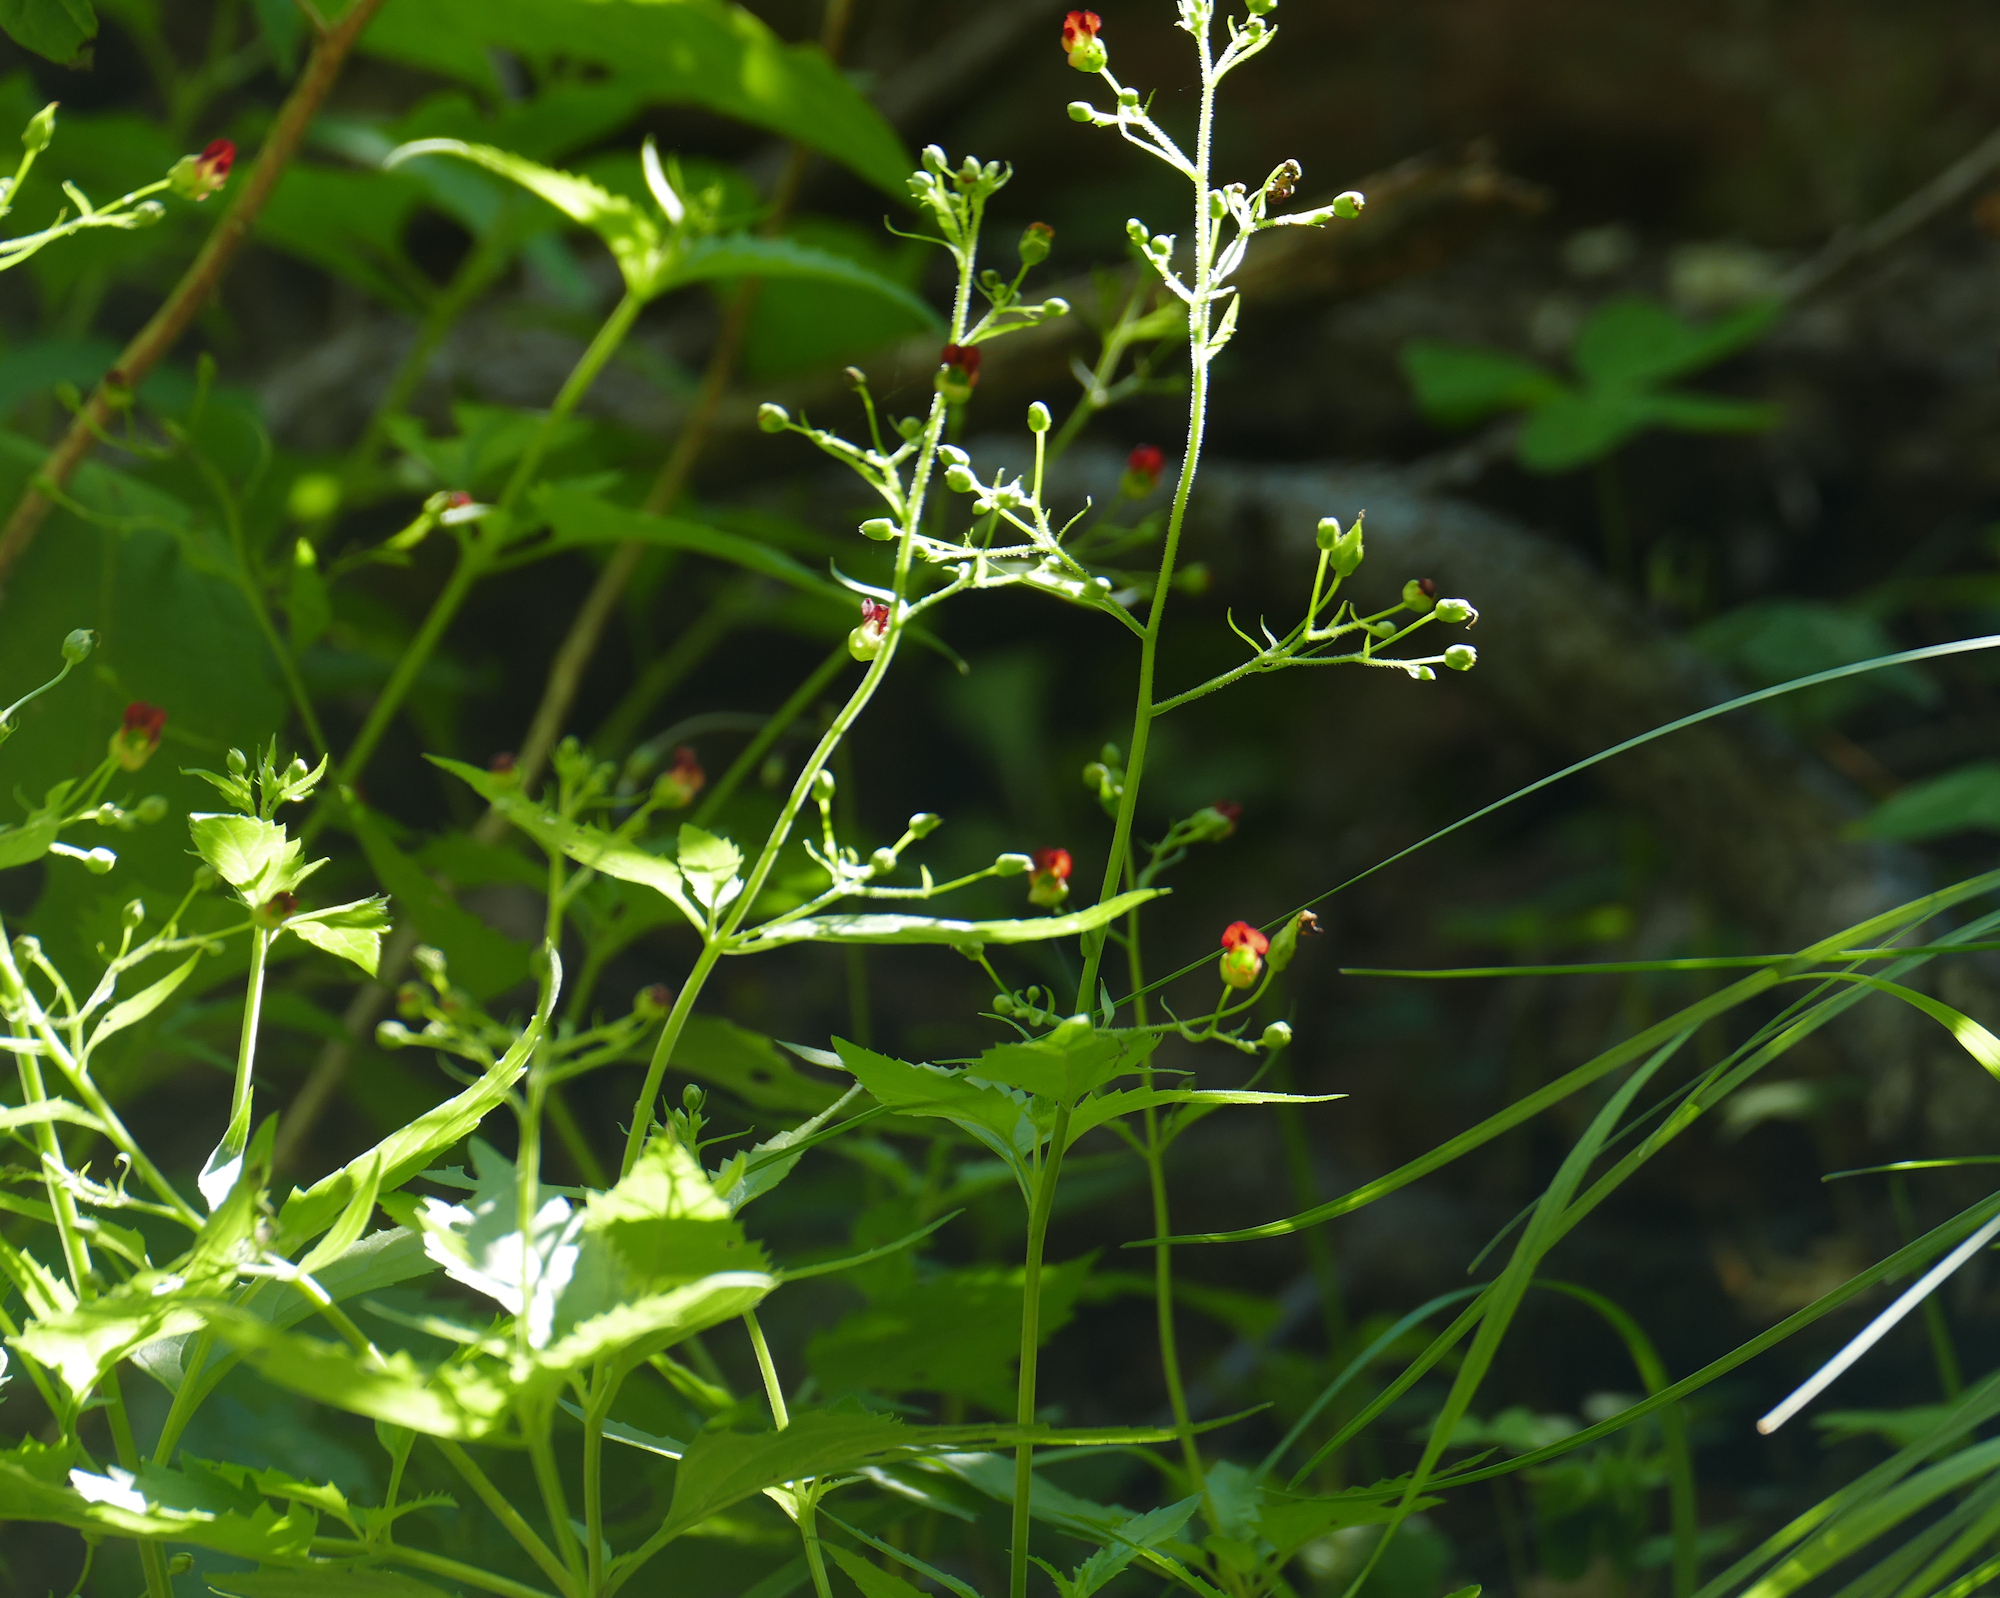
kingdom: Plantae
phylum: Tracheophyta
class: Magnoliopsida
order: Lamiales
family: Scrophulariaceae
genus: Scrophularia
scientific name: Scrophularia parviflora
